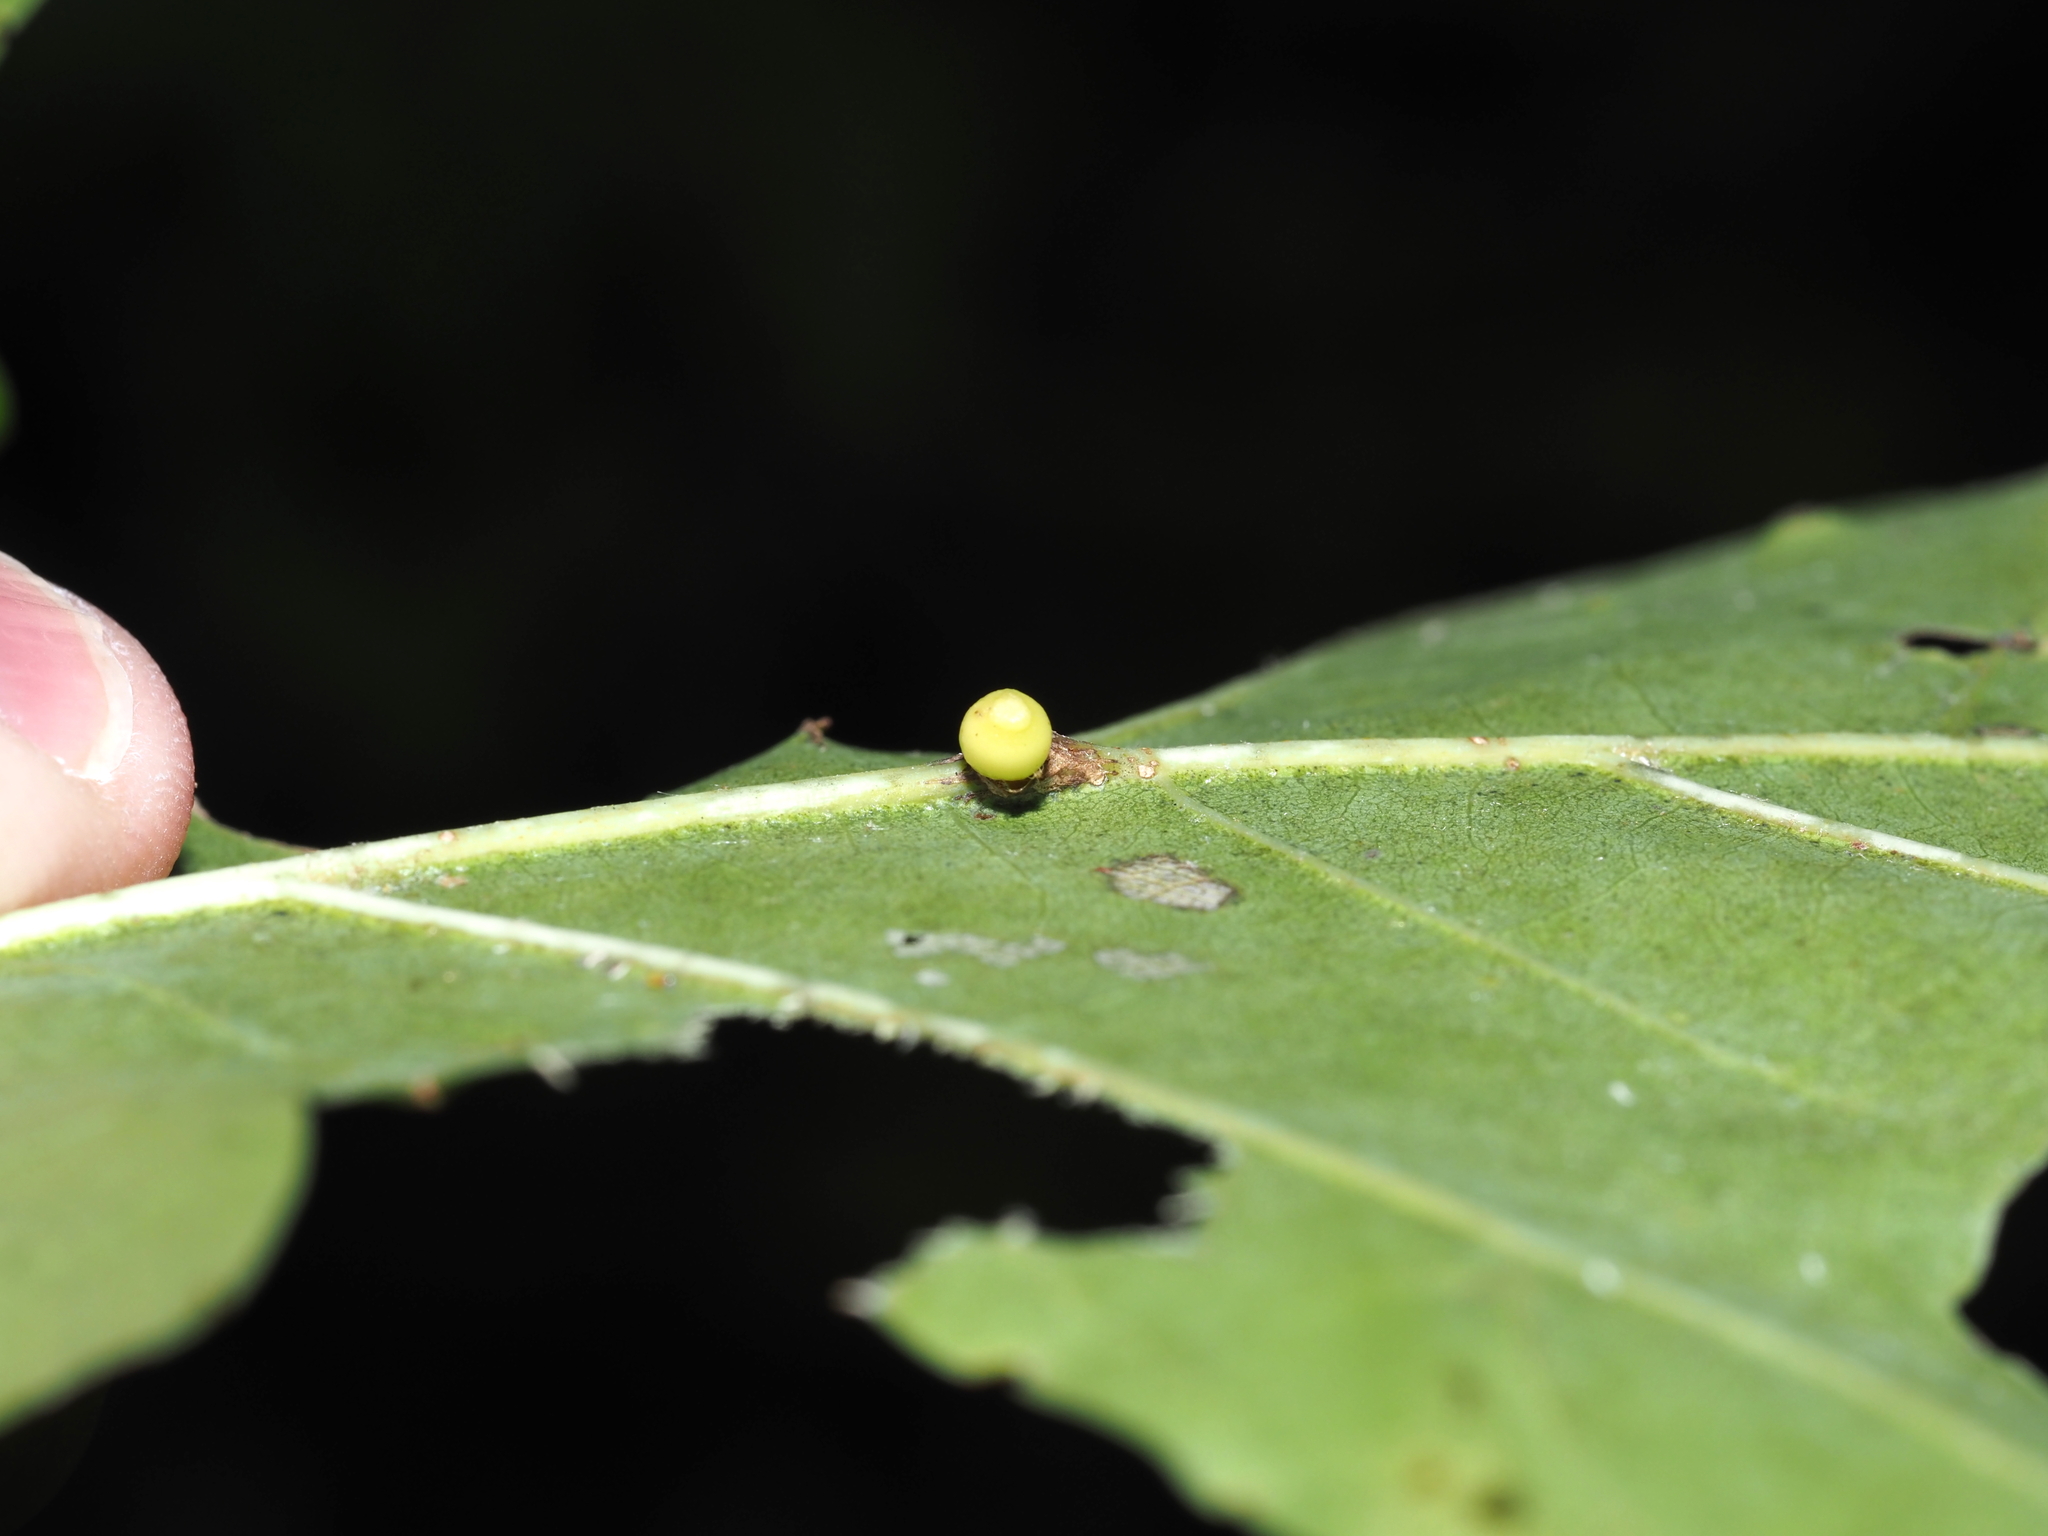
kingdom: Animalia
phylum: Arthropoda
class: Insecta
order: Hymenoptera
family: Cynipidae
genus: Kokkocynips
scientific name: Kokkocynips decidua
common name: Oak wheat gall
